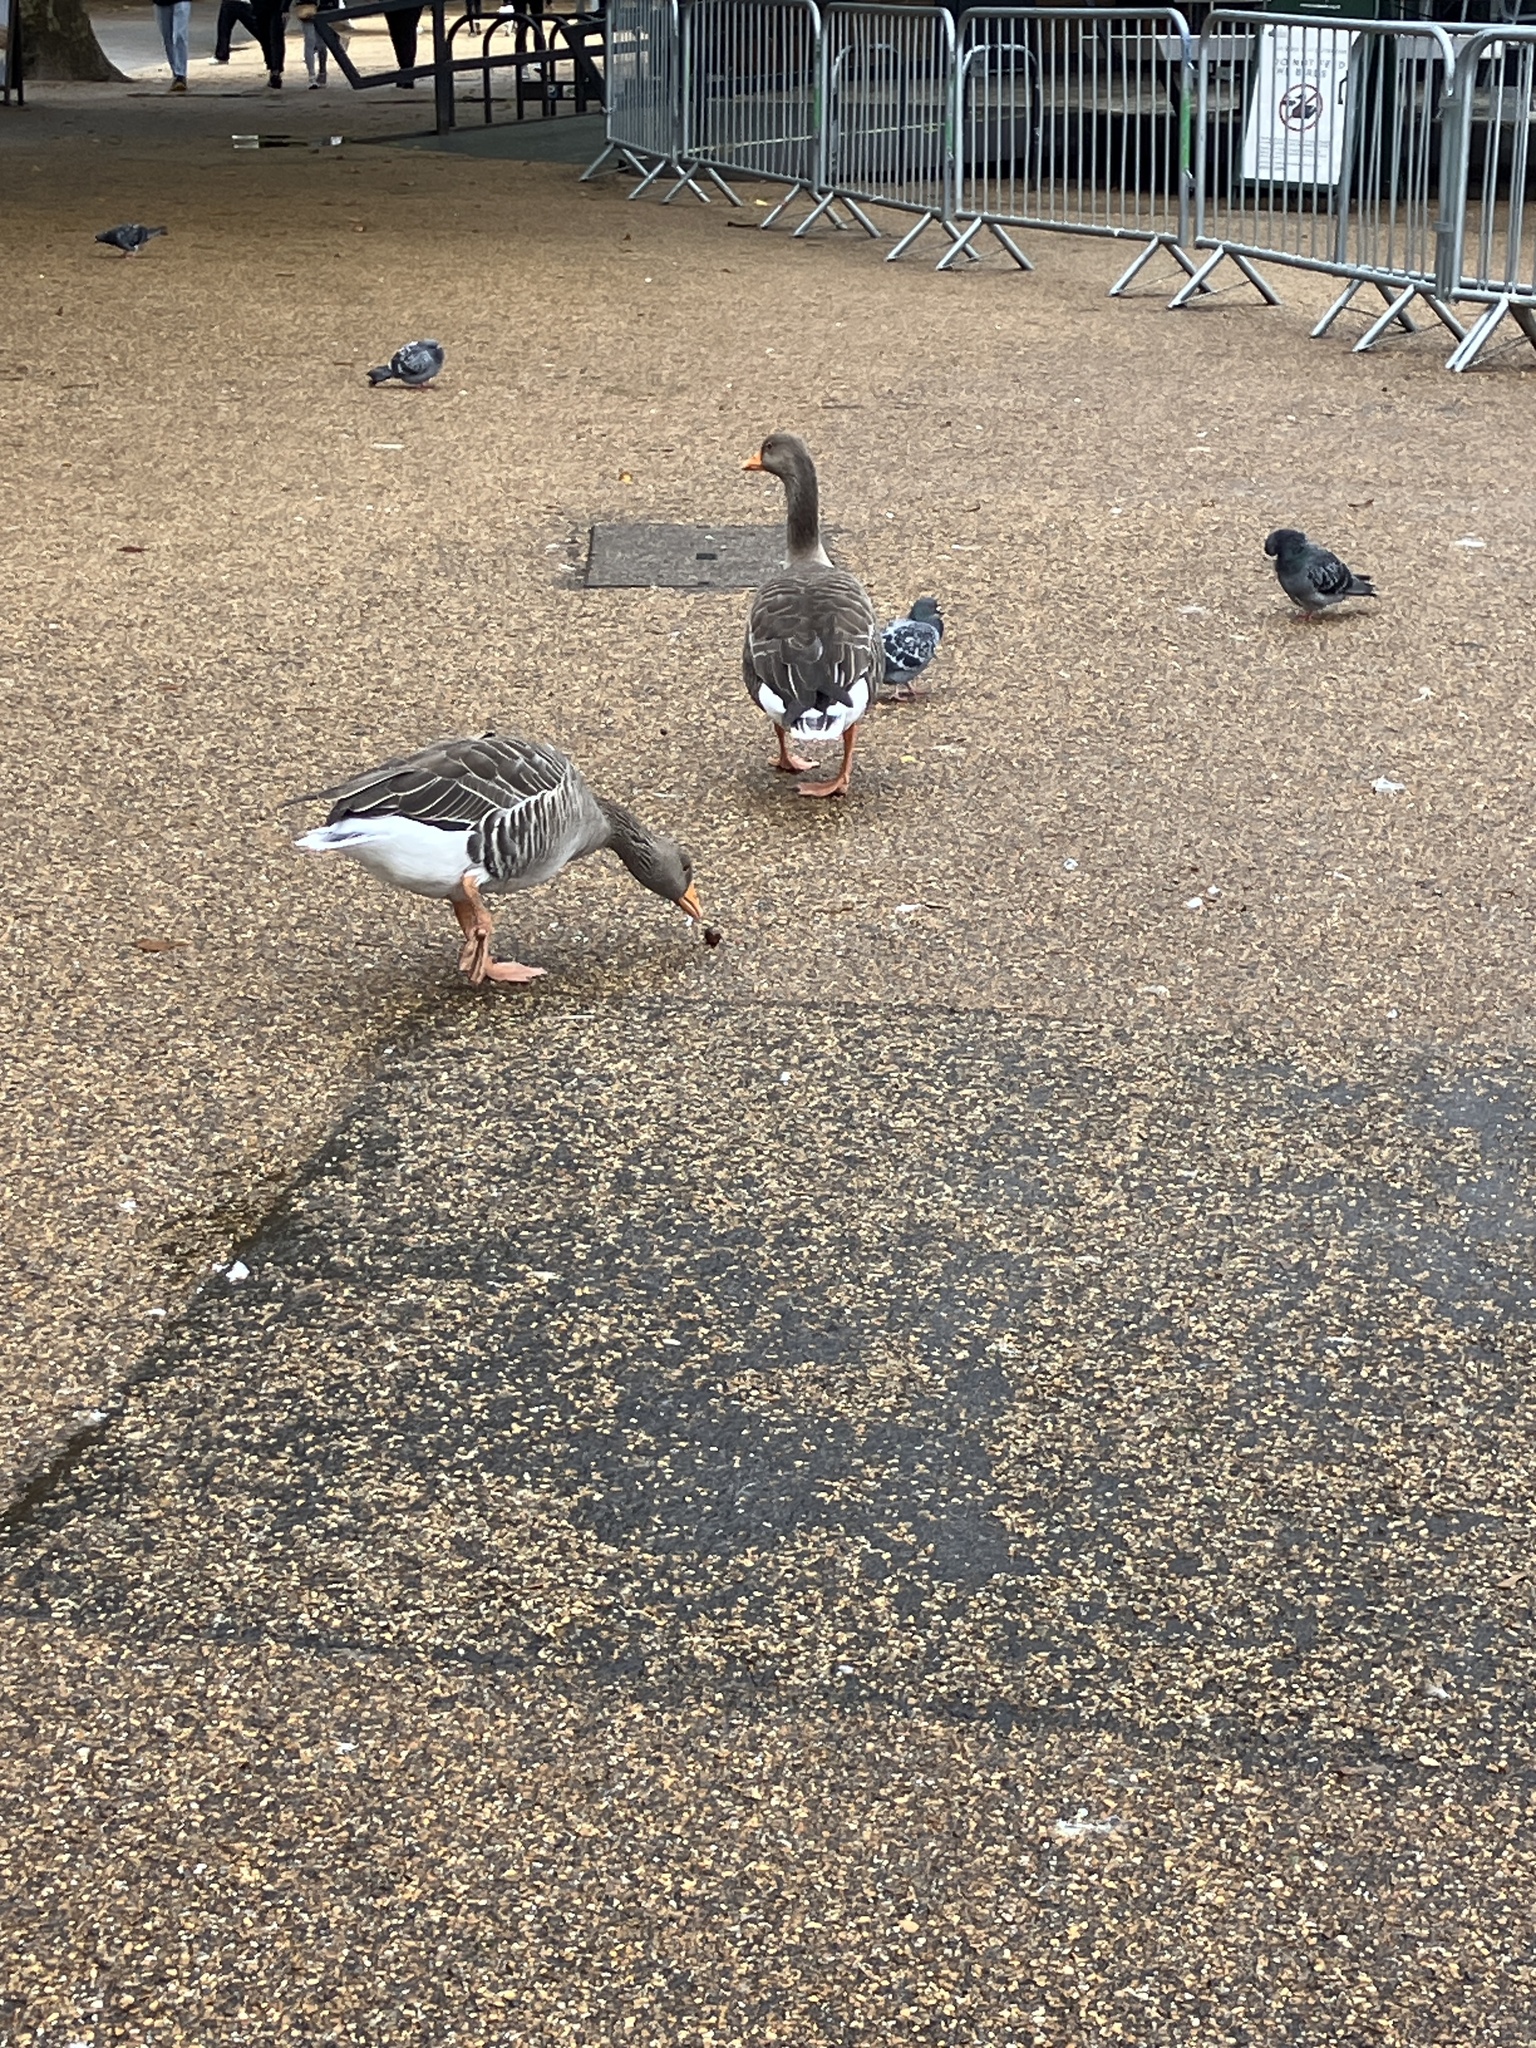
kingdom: Animalia
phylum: Chordata
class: Aves
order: Anseriformes
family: Anatidae
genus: Anser
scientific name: Anser anser
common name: Greylag goose
